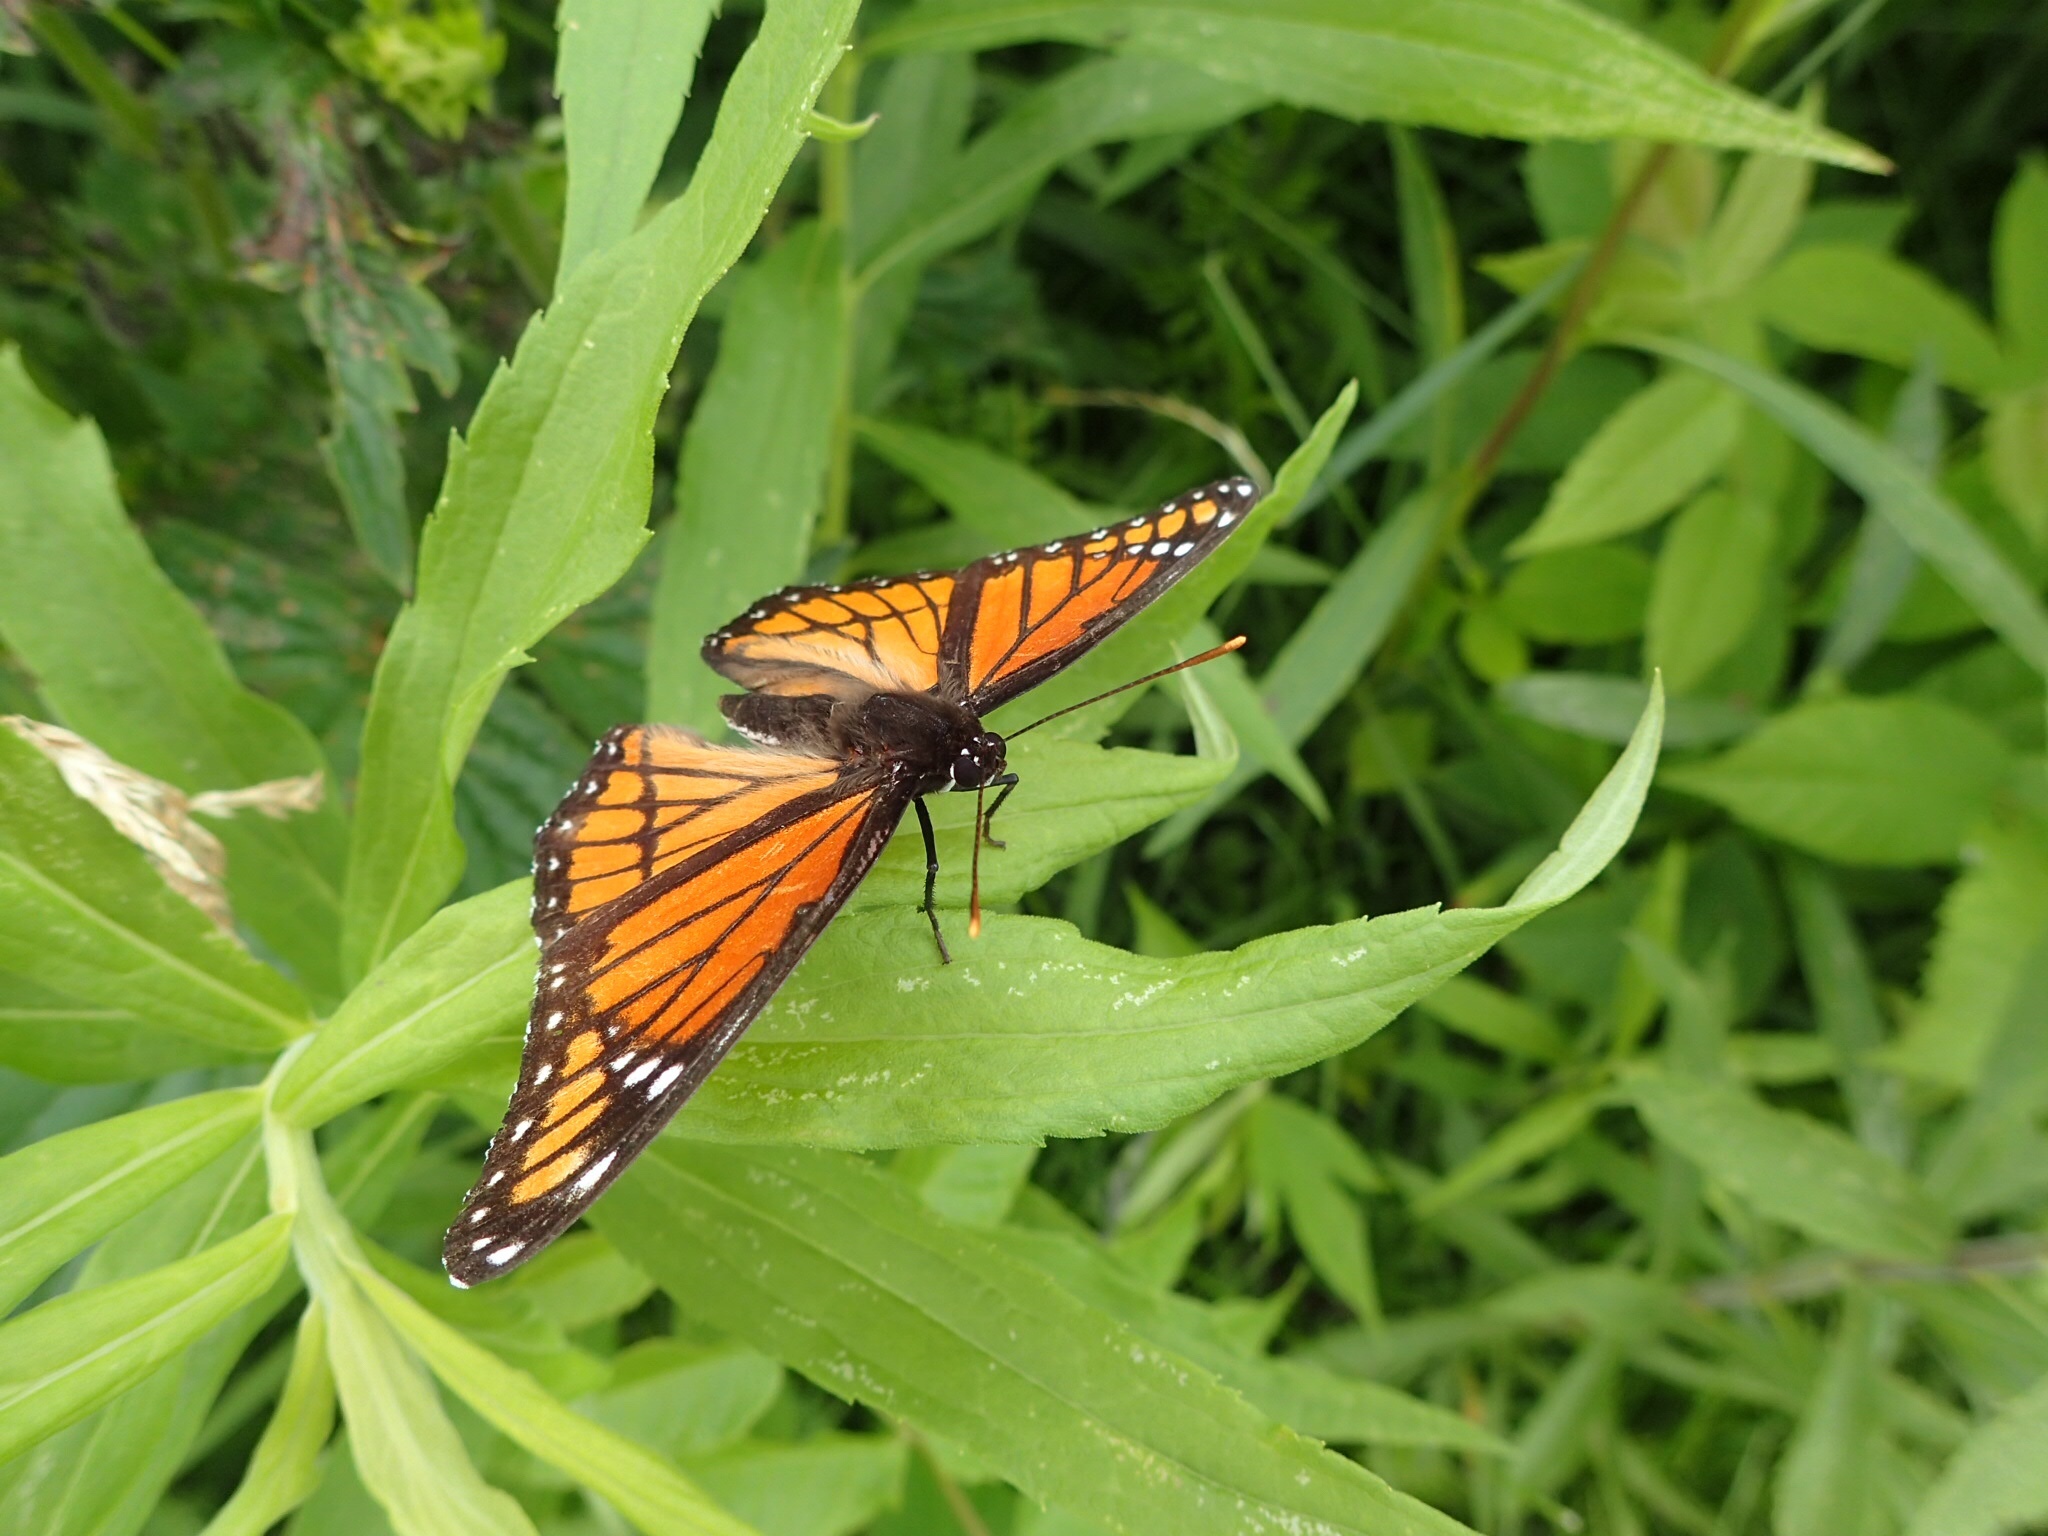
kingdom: Animalia
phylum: Arthropoda
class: Insecta
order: Lepidoptera
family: Nymphalidae
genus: Limenitis
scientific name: Limenitis archippus
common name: Viceroy
